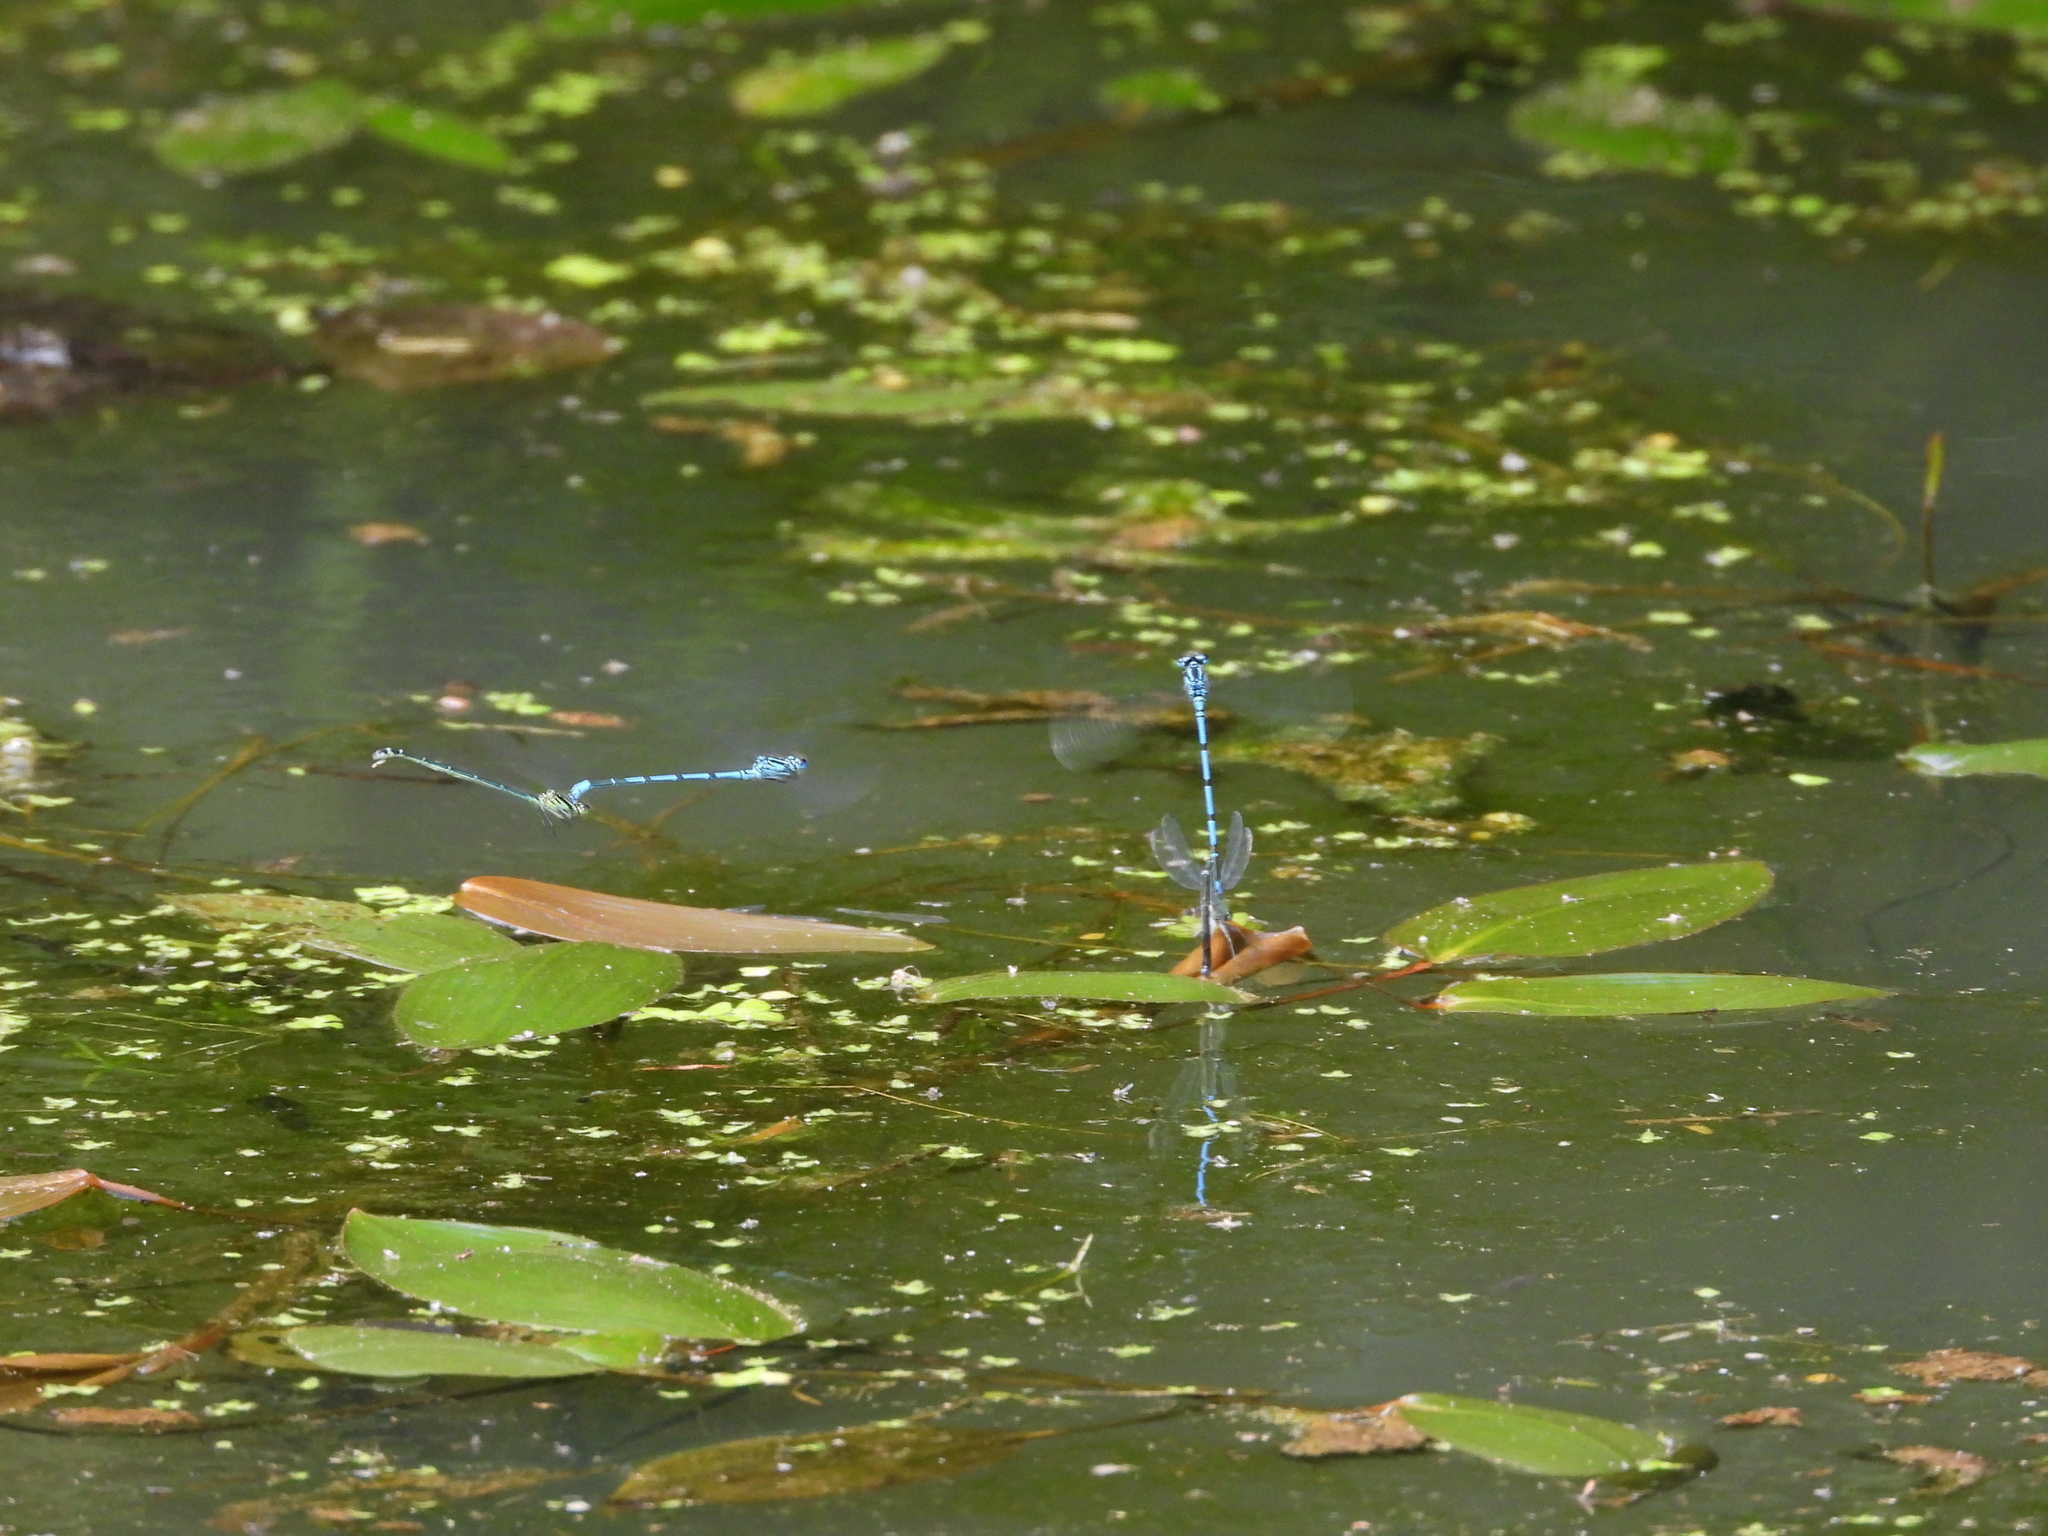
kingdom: Animalia
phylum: Arthropoda
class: Insecta
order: Odonata
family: Coenagrionidae
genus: Coenagrion
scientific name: Coenagrion puella
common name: Azure damselfly
